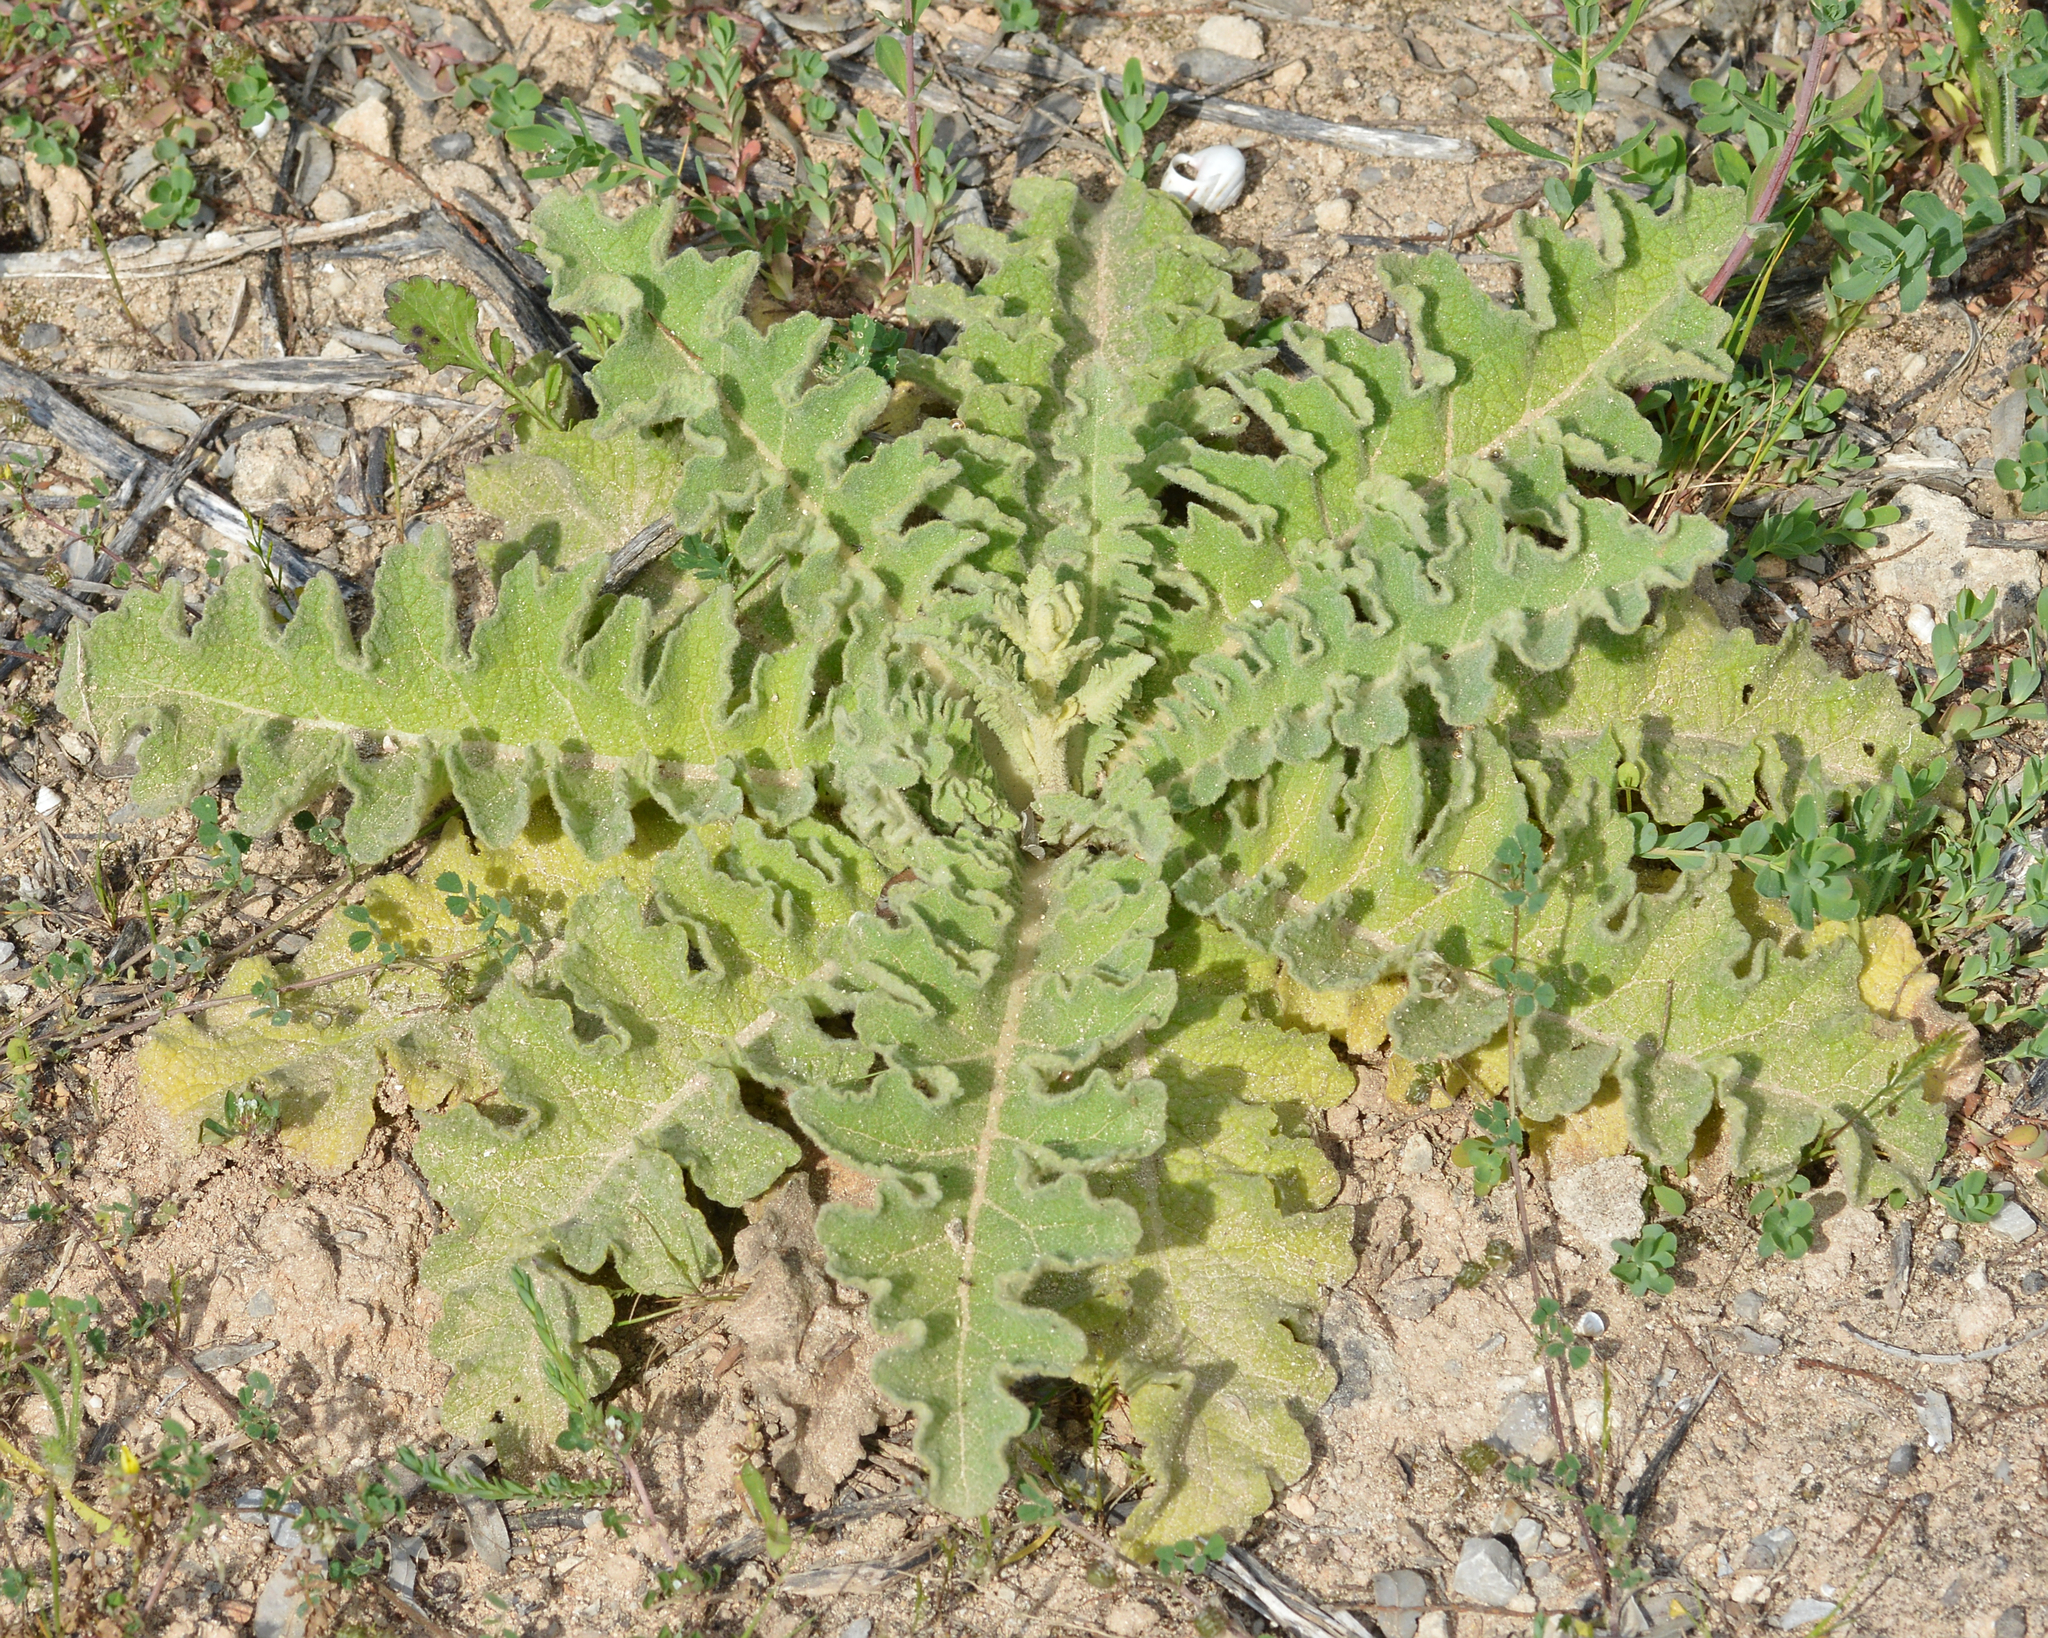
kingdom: Plantae
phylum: Tracheophyta
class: Magnoliopsida
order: Lamiales
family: Scrophulariaceae
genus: Verbascum
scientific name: Verbascum sinuatum
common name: Wavyleaf mullein
